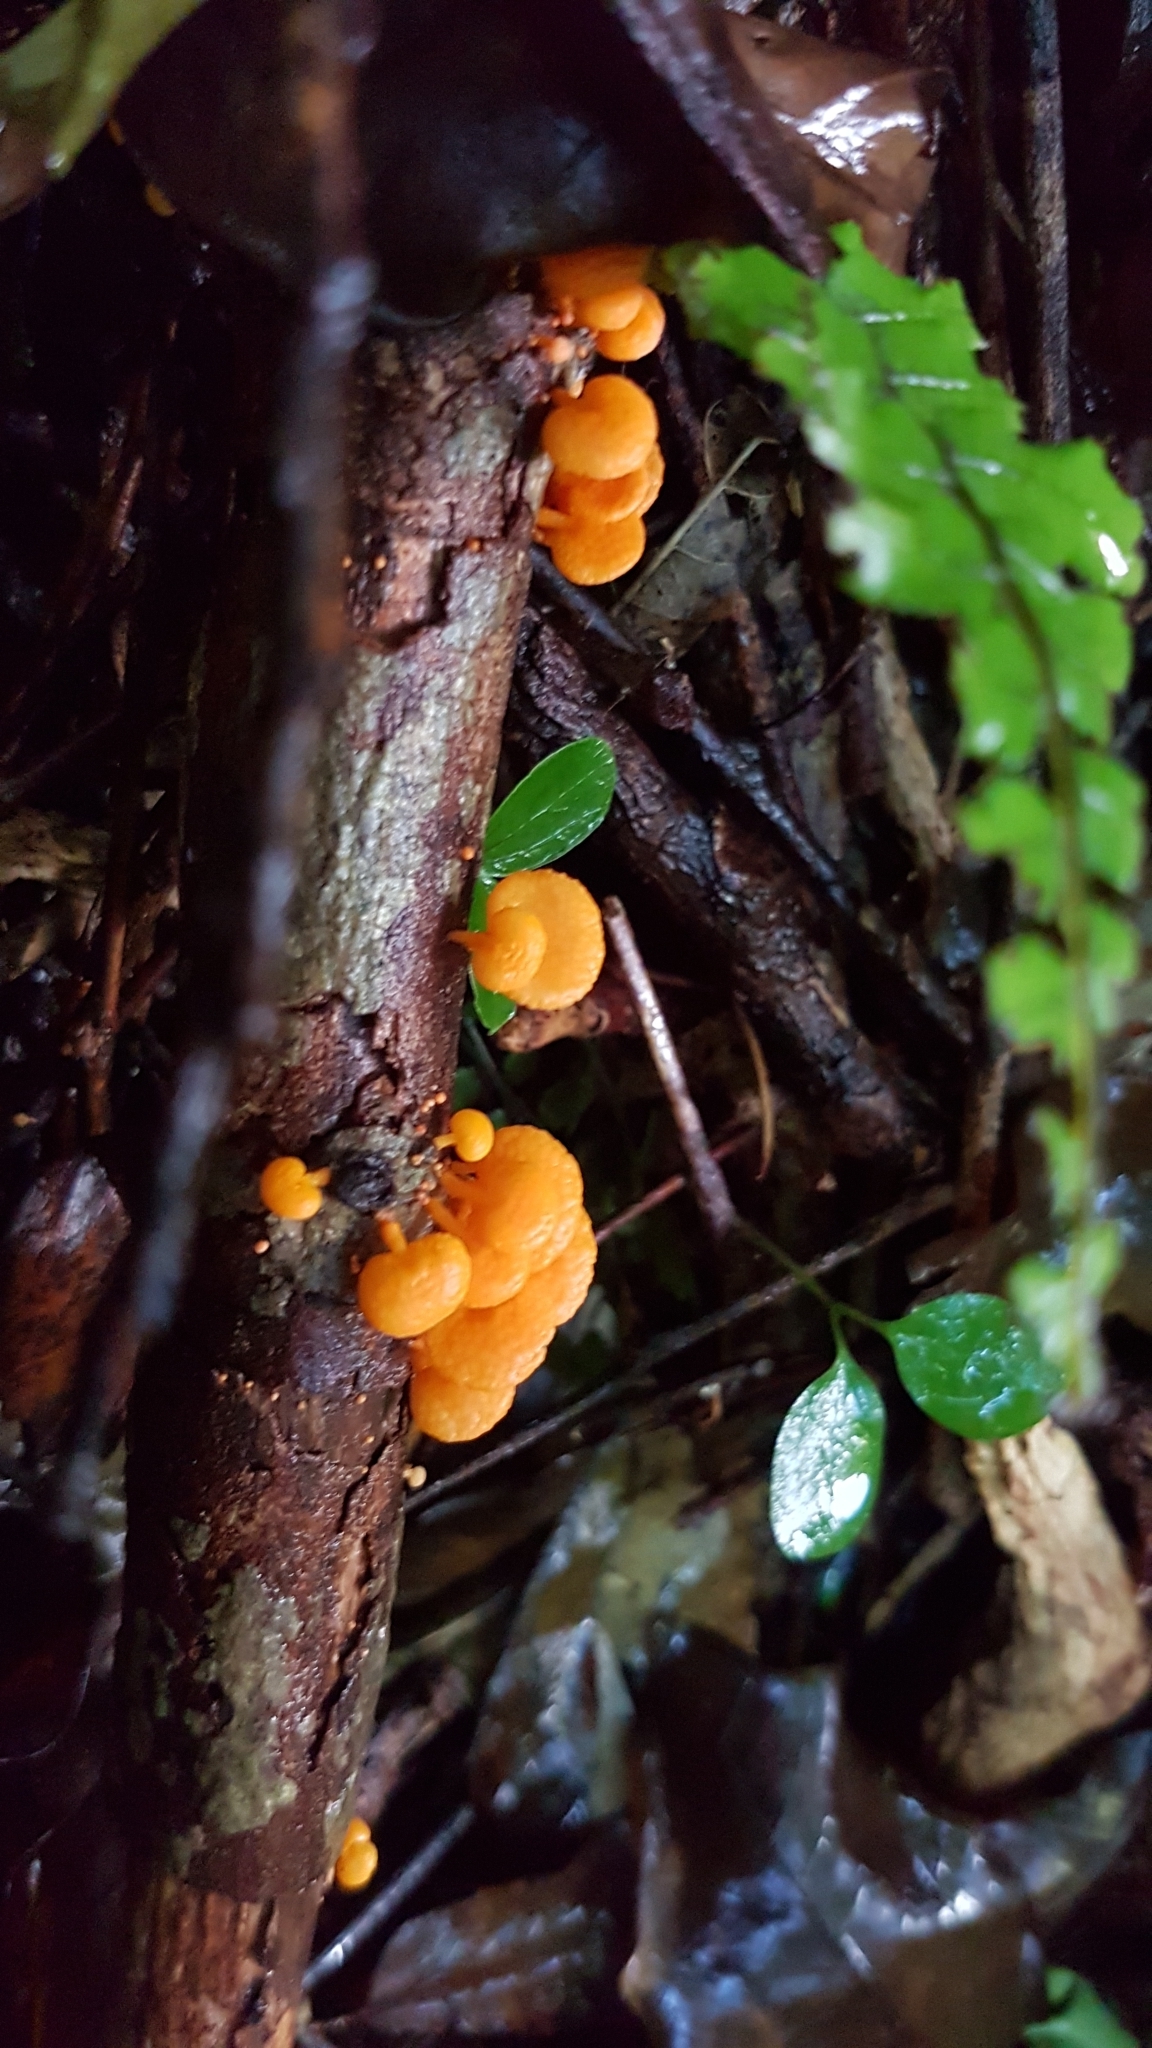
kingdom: Fungi
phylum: Basidiomycota
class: Agaricomycetes
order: Agaricales
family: Mycenaceae
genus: Favolaschia
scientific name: Favolaschia claudopus
